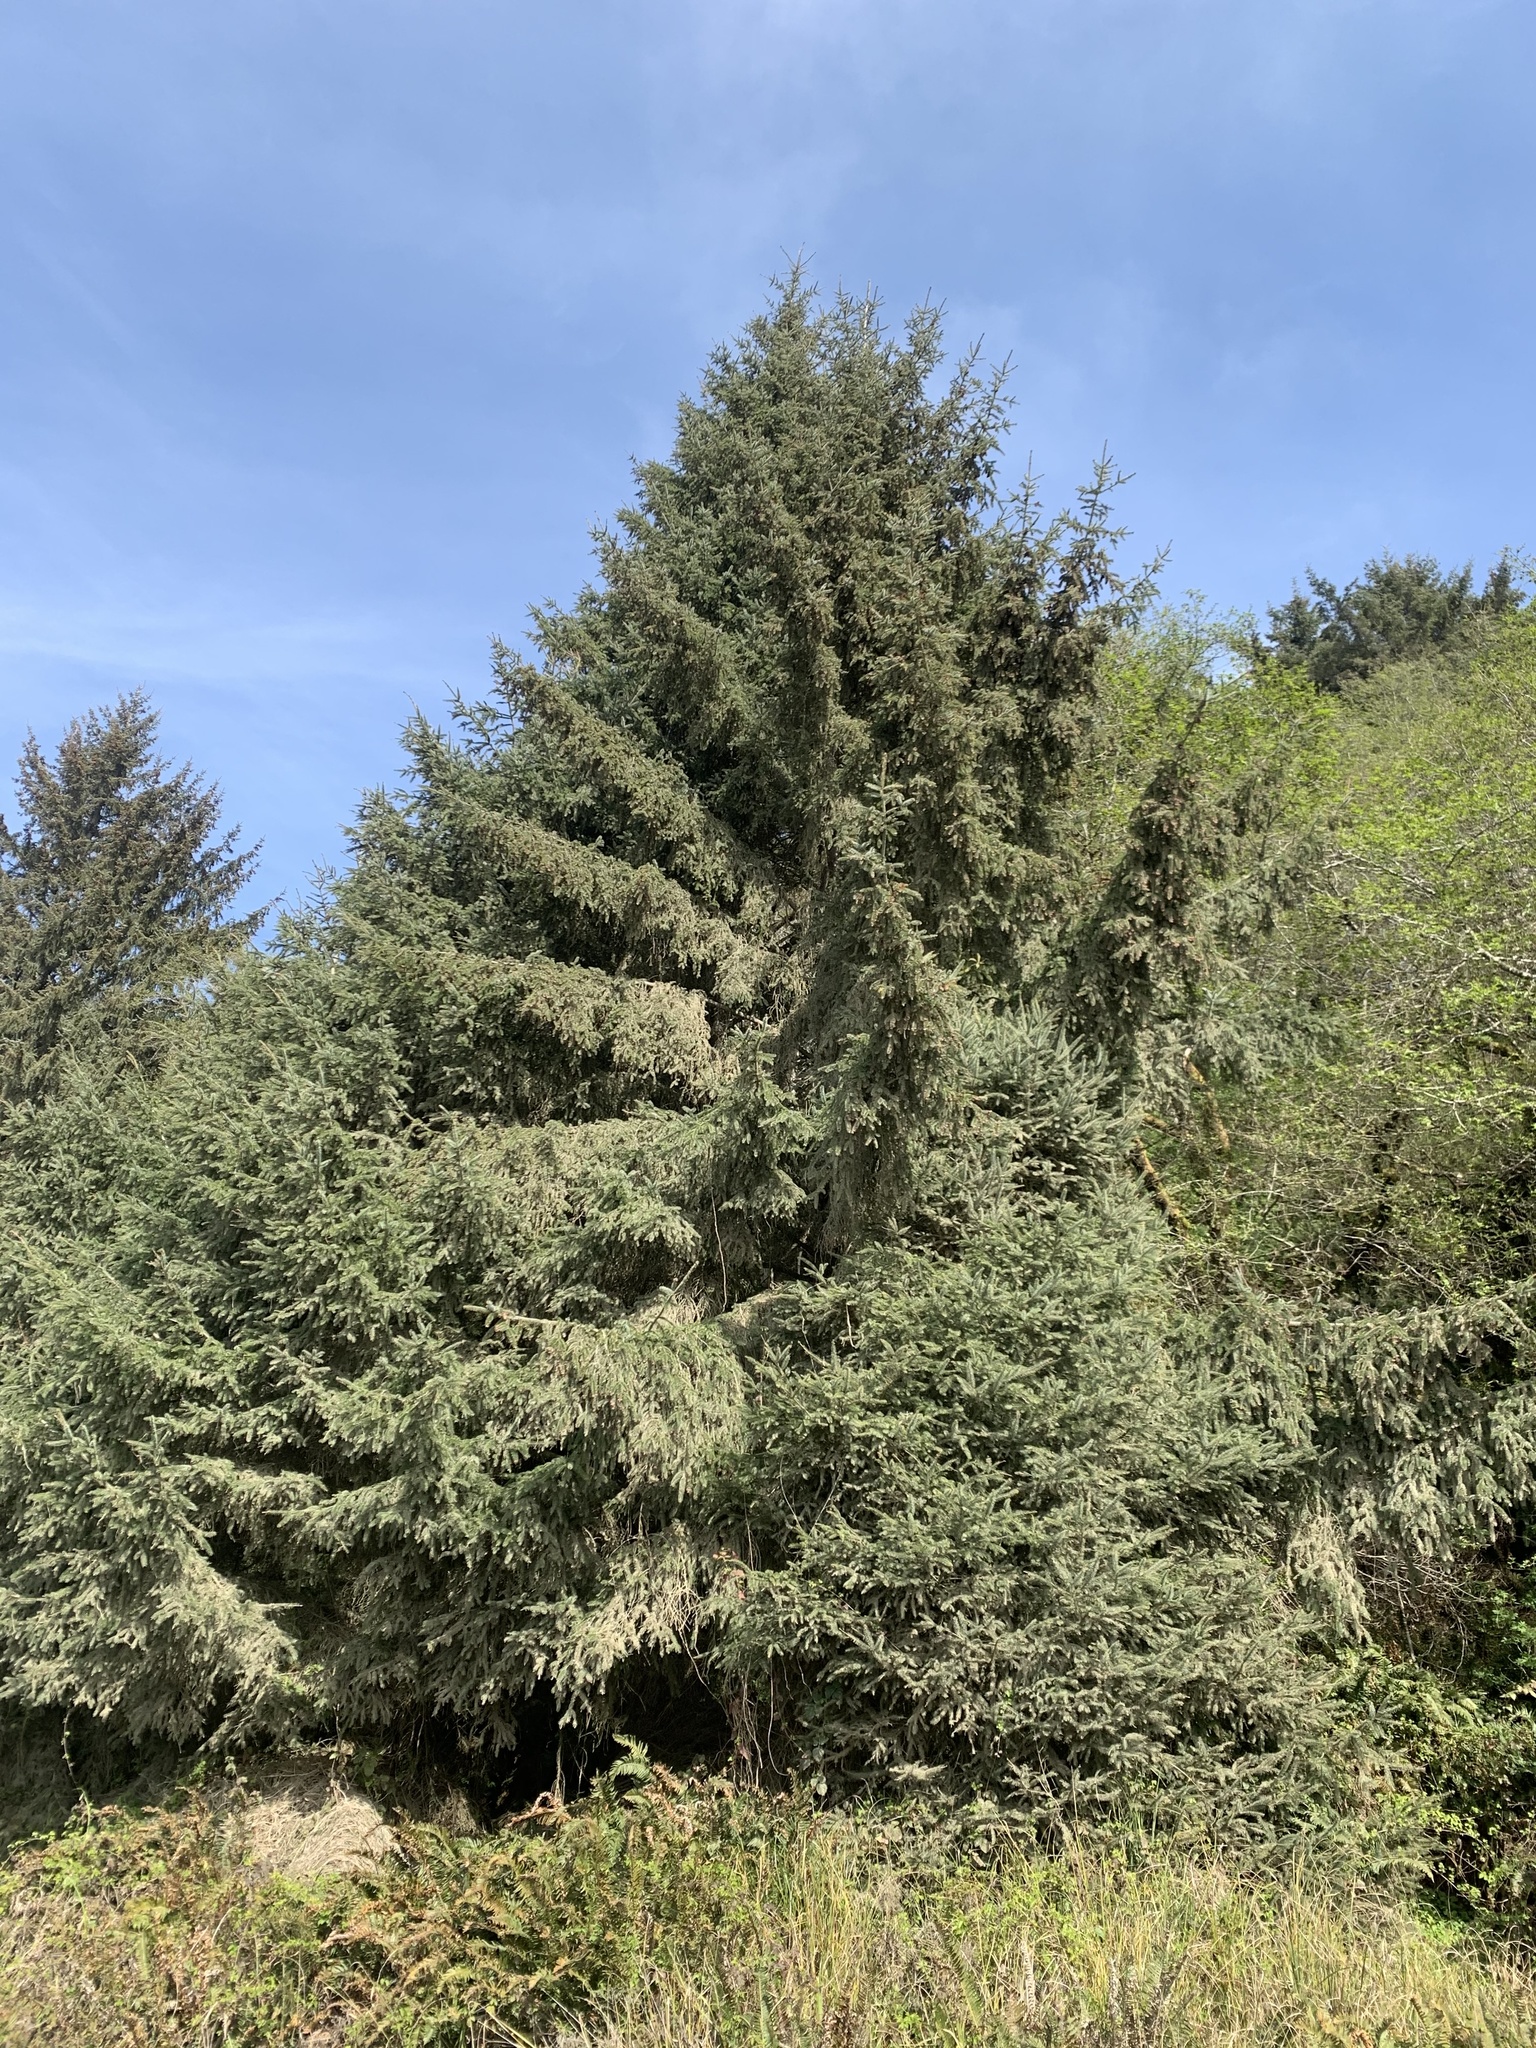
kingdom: Plantae
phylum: Tracheophyta
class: Pinopsida
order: Pinales
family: Pinaceae
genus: Picea
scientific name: Picea sitchensis
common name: Sitka spruce
